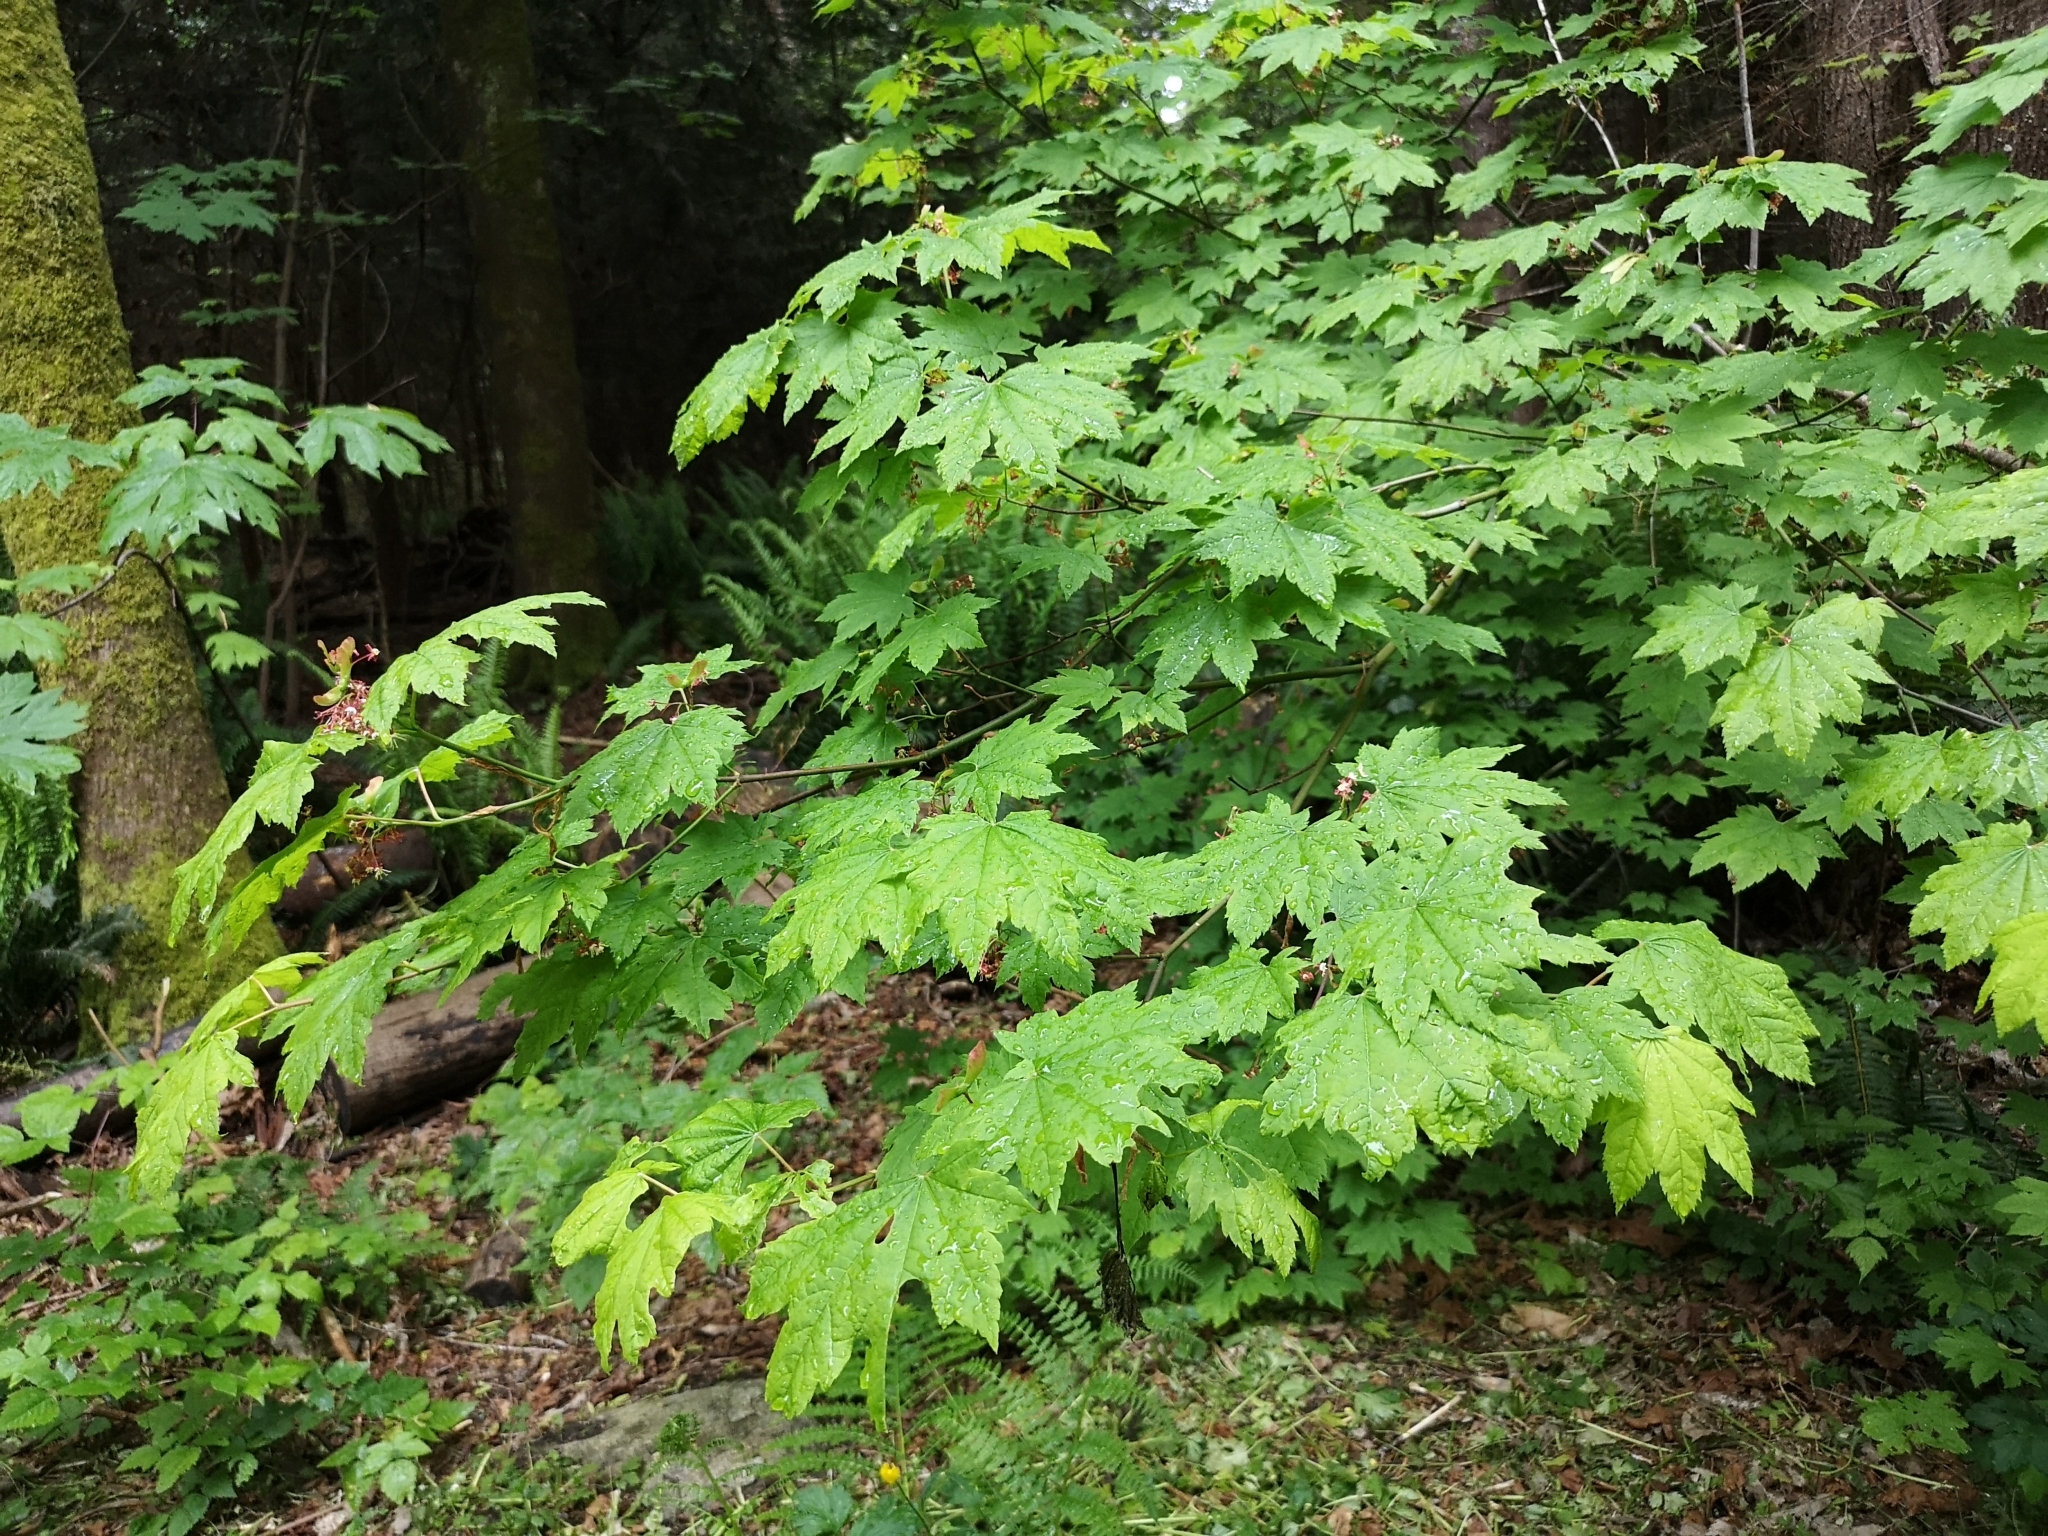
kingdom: Plantae
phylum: Tracheophyta
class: Magnoliopsida
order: Sapindales
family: Sapindaceae
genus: Acer
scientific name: Acer circinatum
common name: Vine maple
